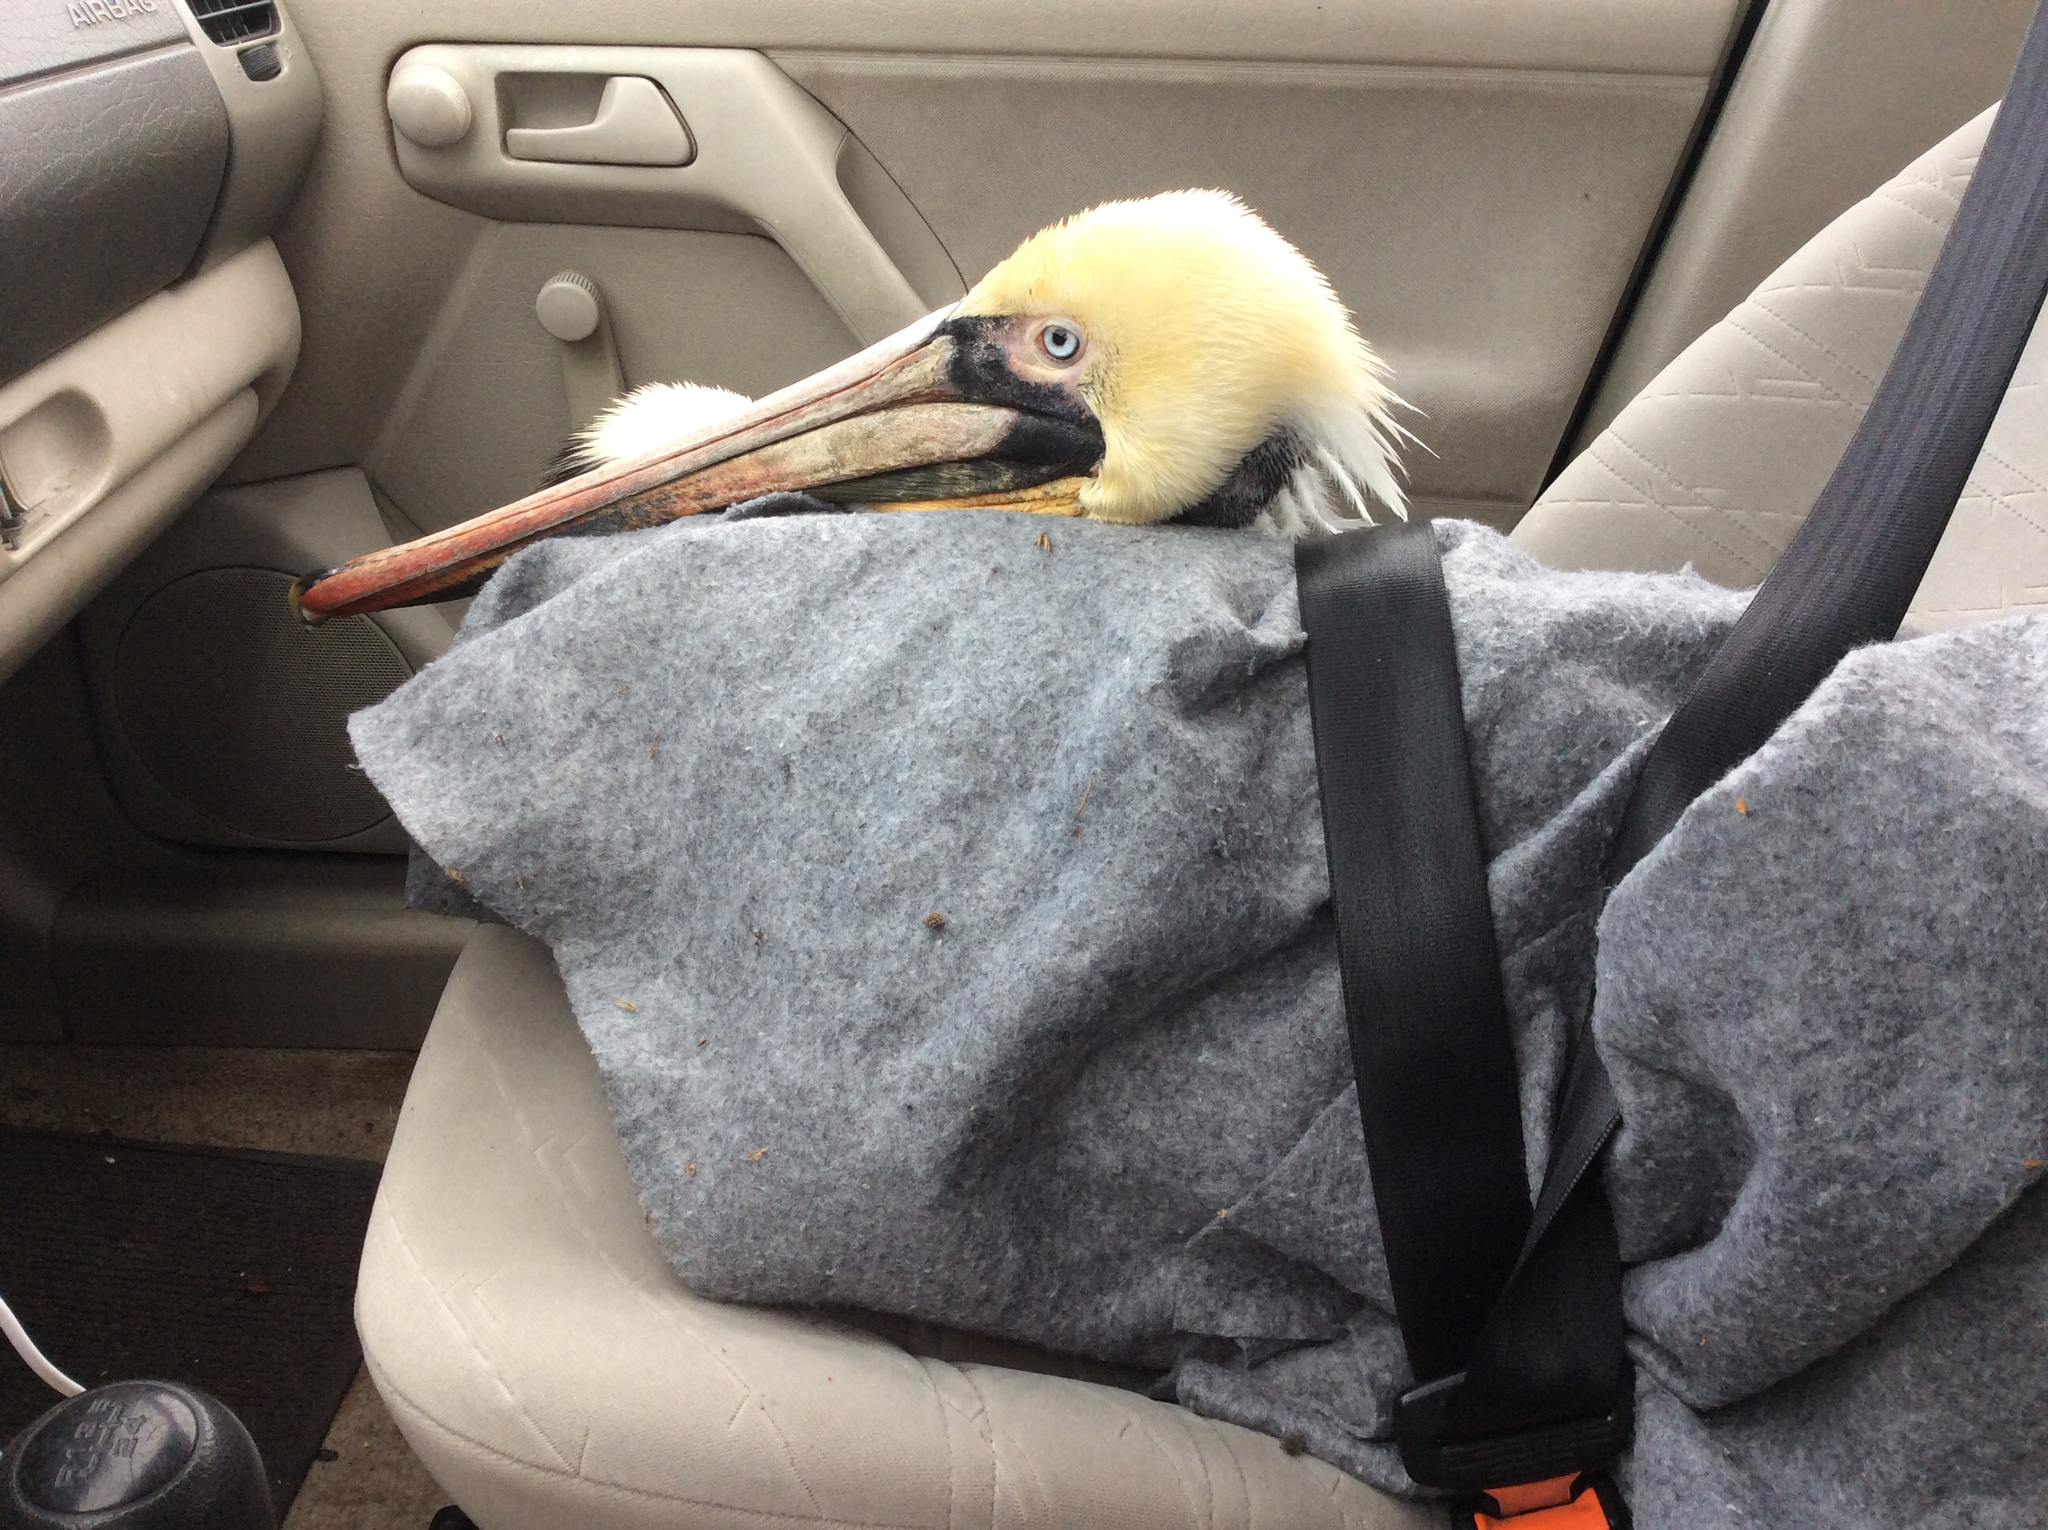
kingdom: Animalia
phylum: Chordata
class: Aves
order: Pelecaniformes
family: Pelecanidae
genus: Pelecanus
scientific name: Pelecanus occidentalis
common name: Brown pelican
